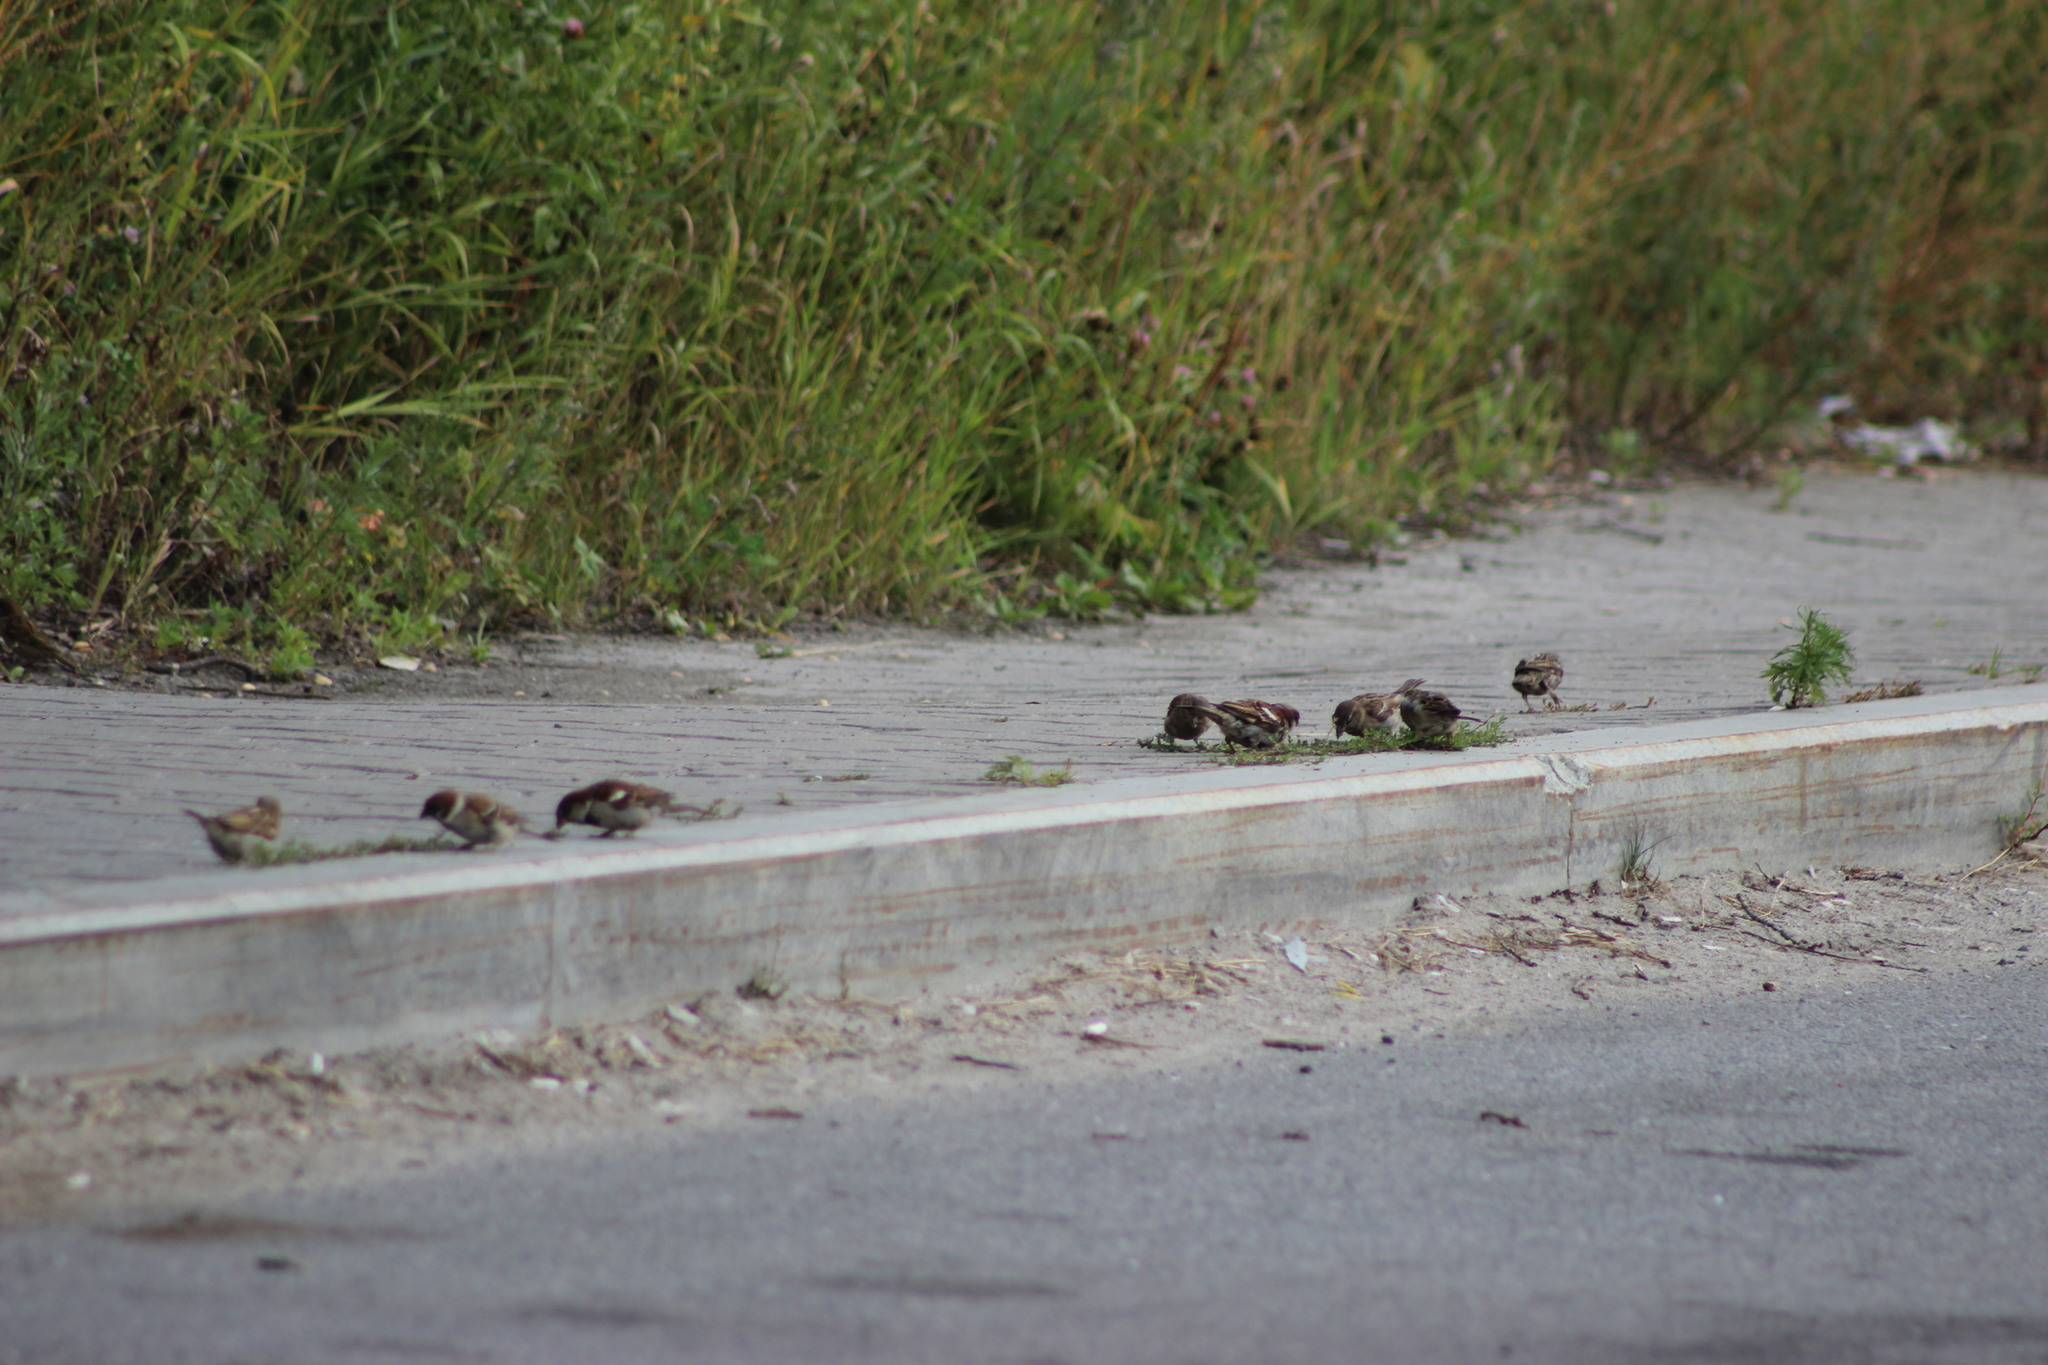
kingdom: Animalia
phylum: Chordata
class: Aves
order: Passeriformes
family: Passeridae
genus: Passer
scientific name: Passer montanus
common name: Eurasian tree sparrow
